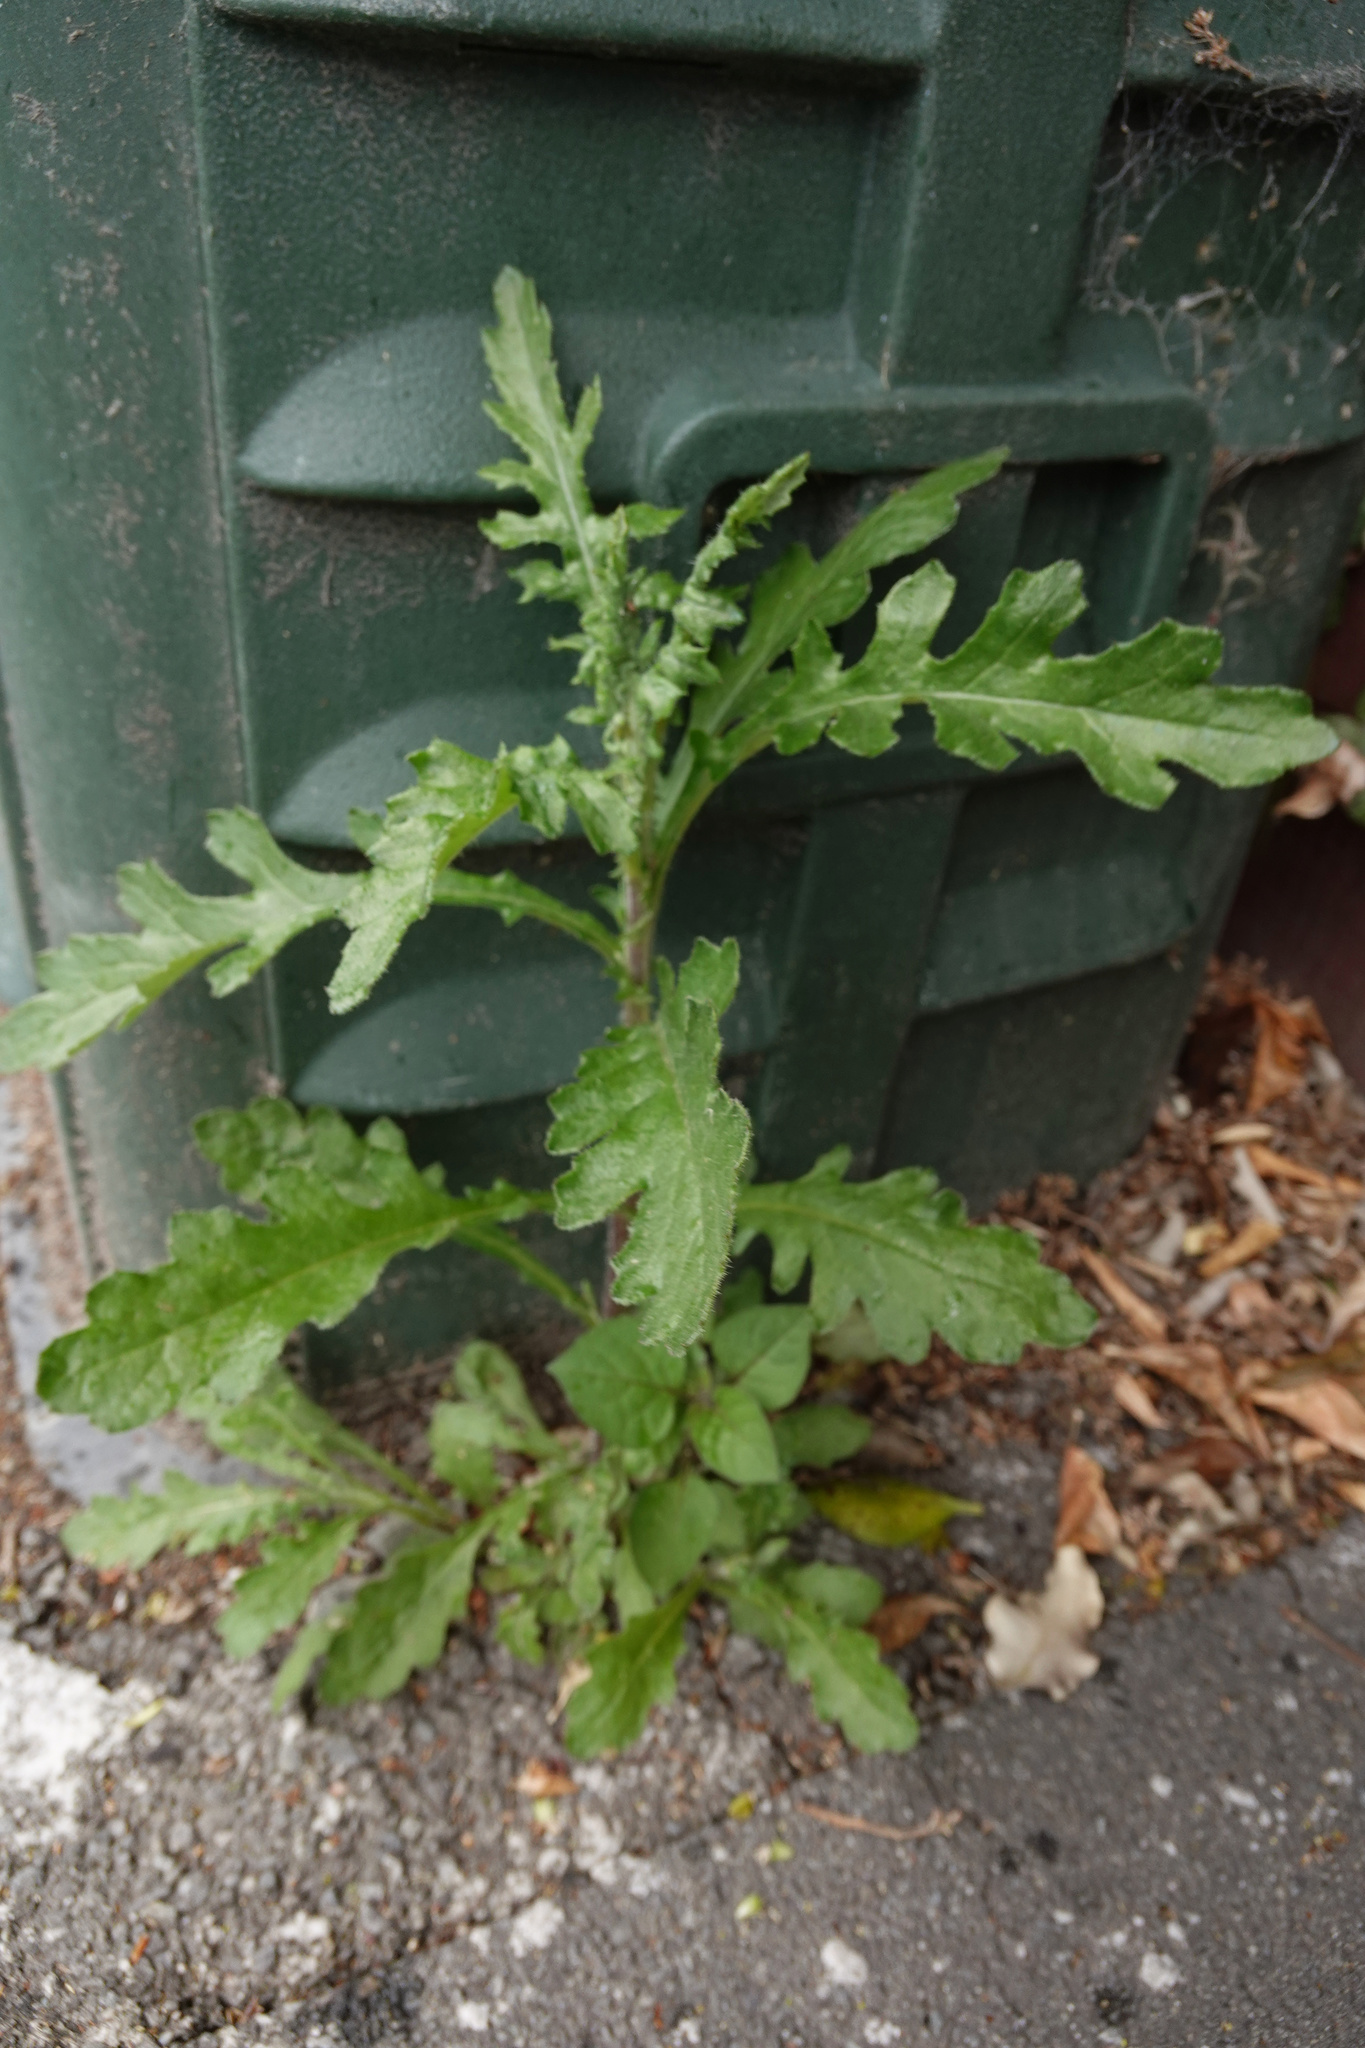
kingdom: Plantae
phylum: Tracheophyta
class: Magnoliopsida
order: Asterales
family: Asteraceae
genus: Senecio
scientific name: Senecio glomeratus
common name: Cutleaf burnweed
